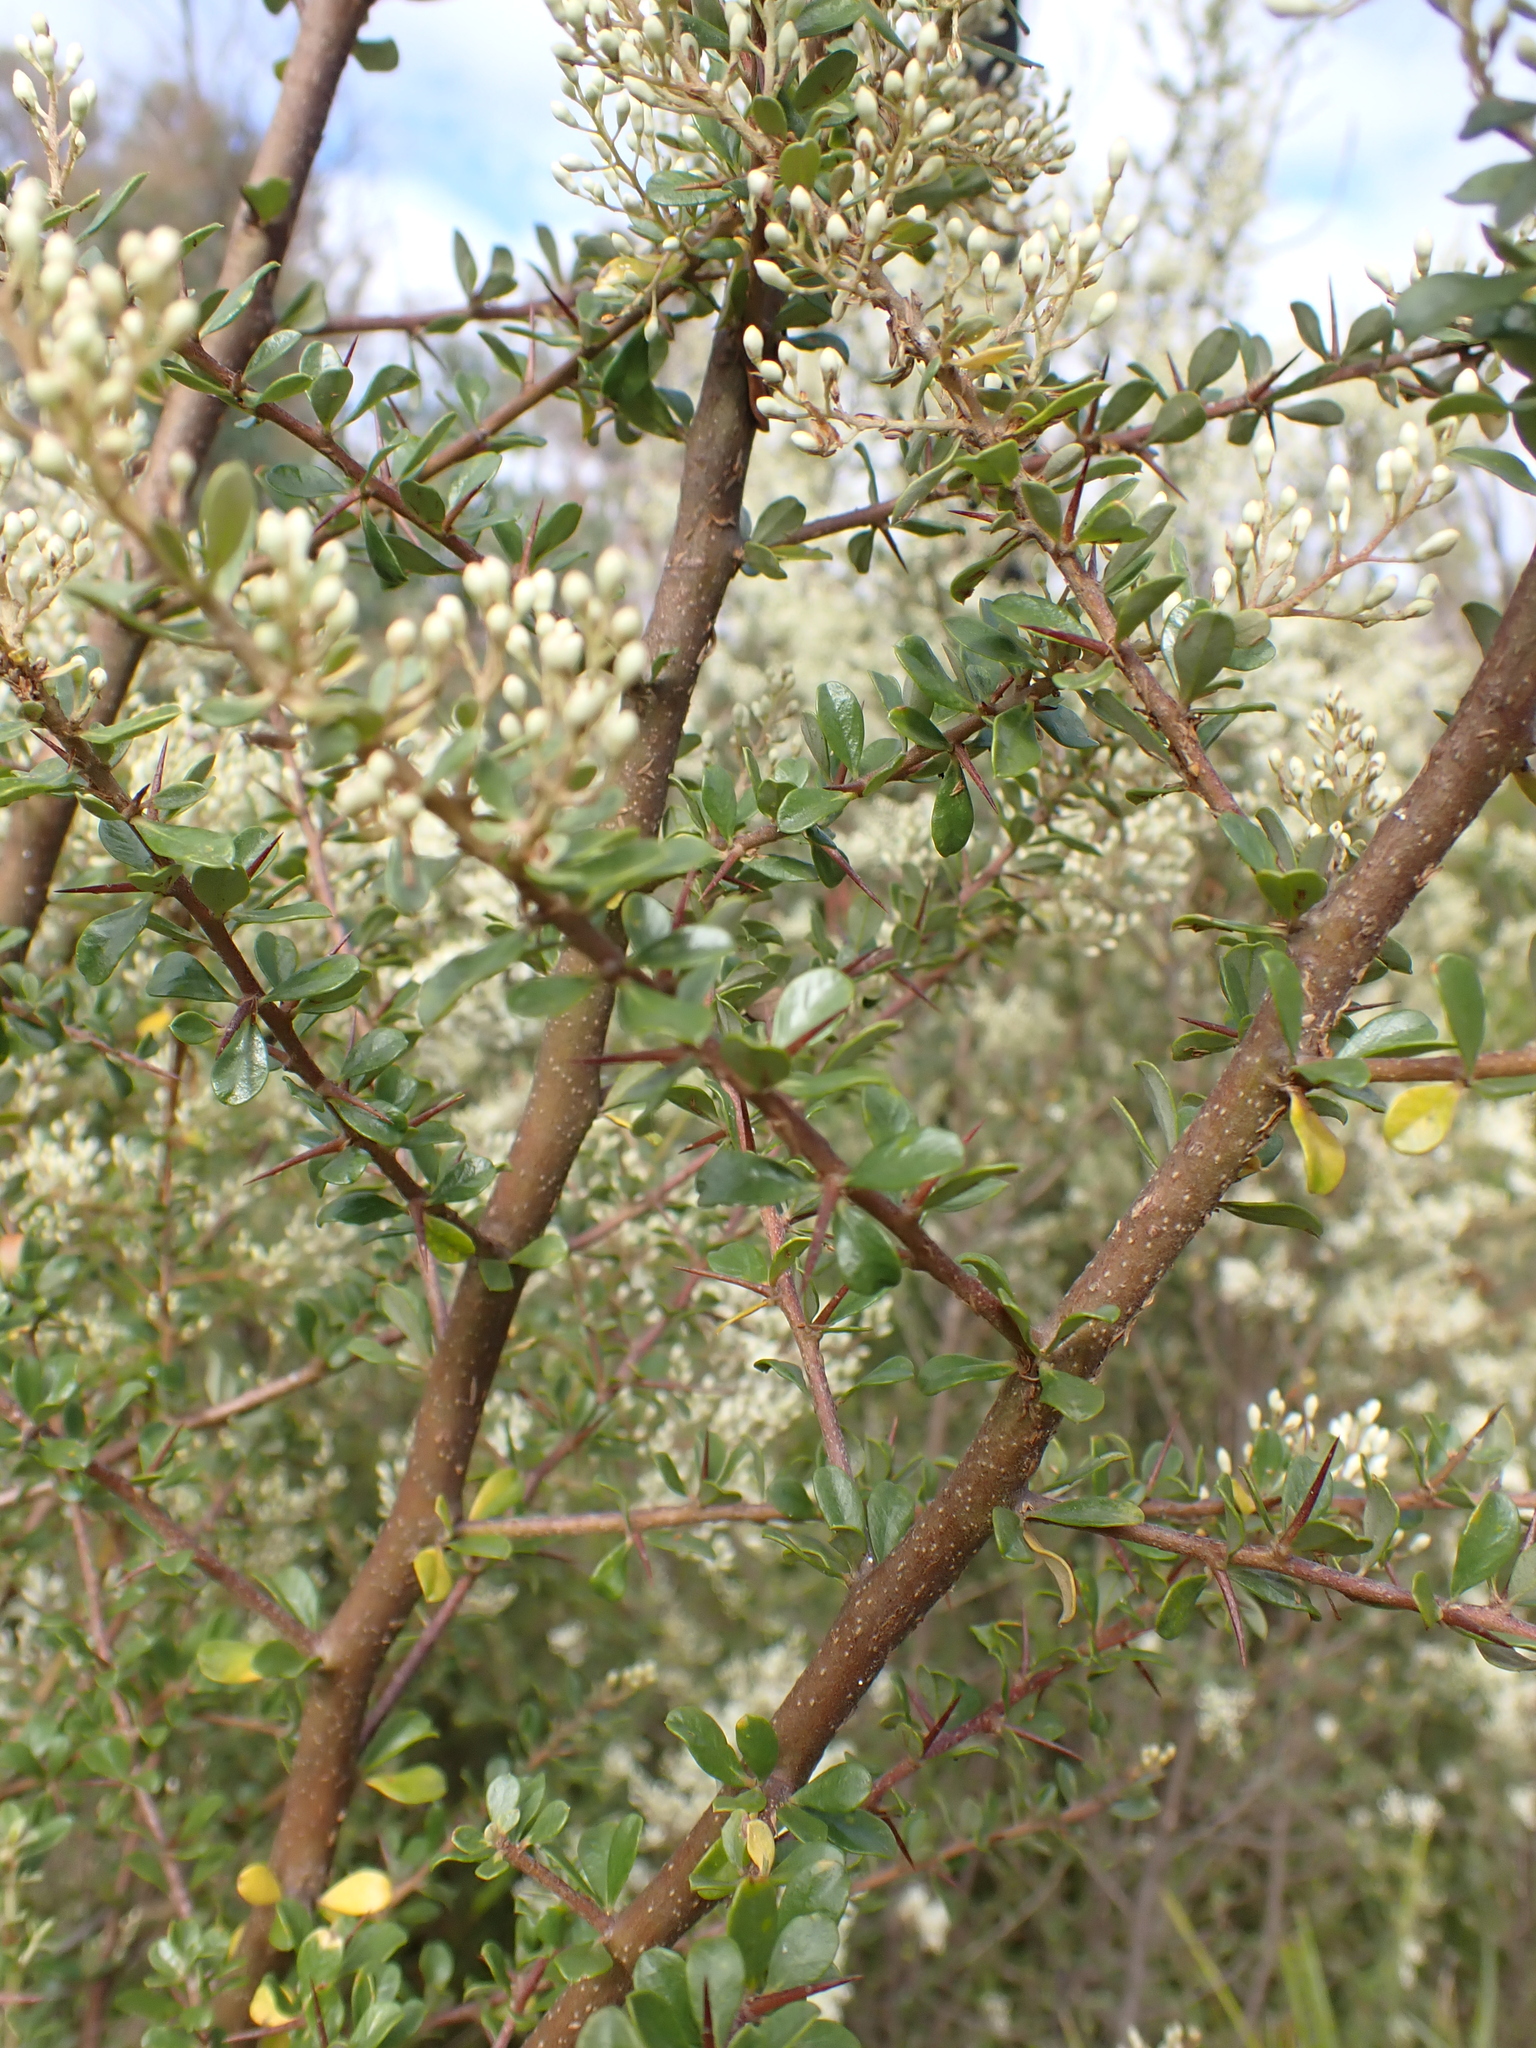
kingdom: Plantae
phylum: Tracheophyta
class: Magnoliopsida
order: Apiales
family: Pittosporaceae
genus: Bursaria
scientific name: Bursaria spinosa
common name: Australian blackthorn
